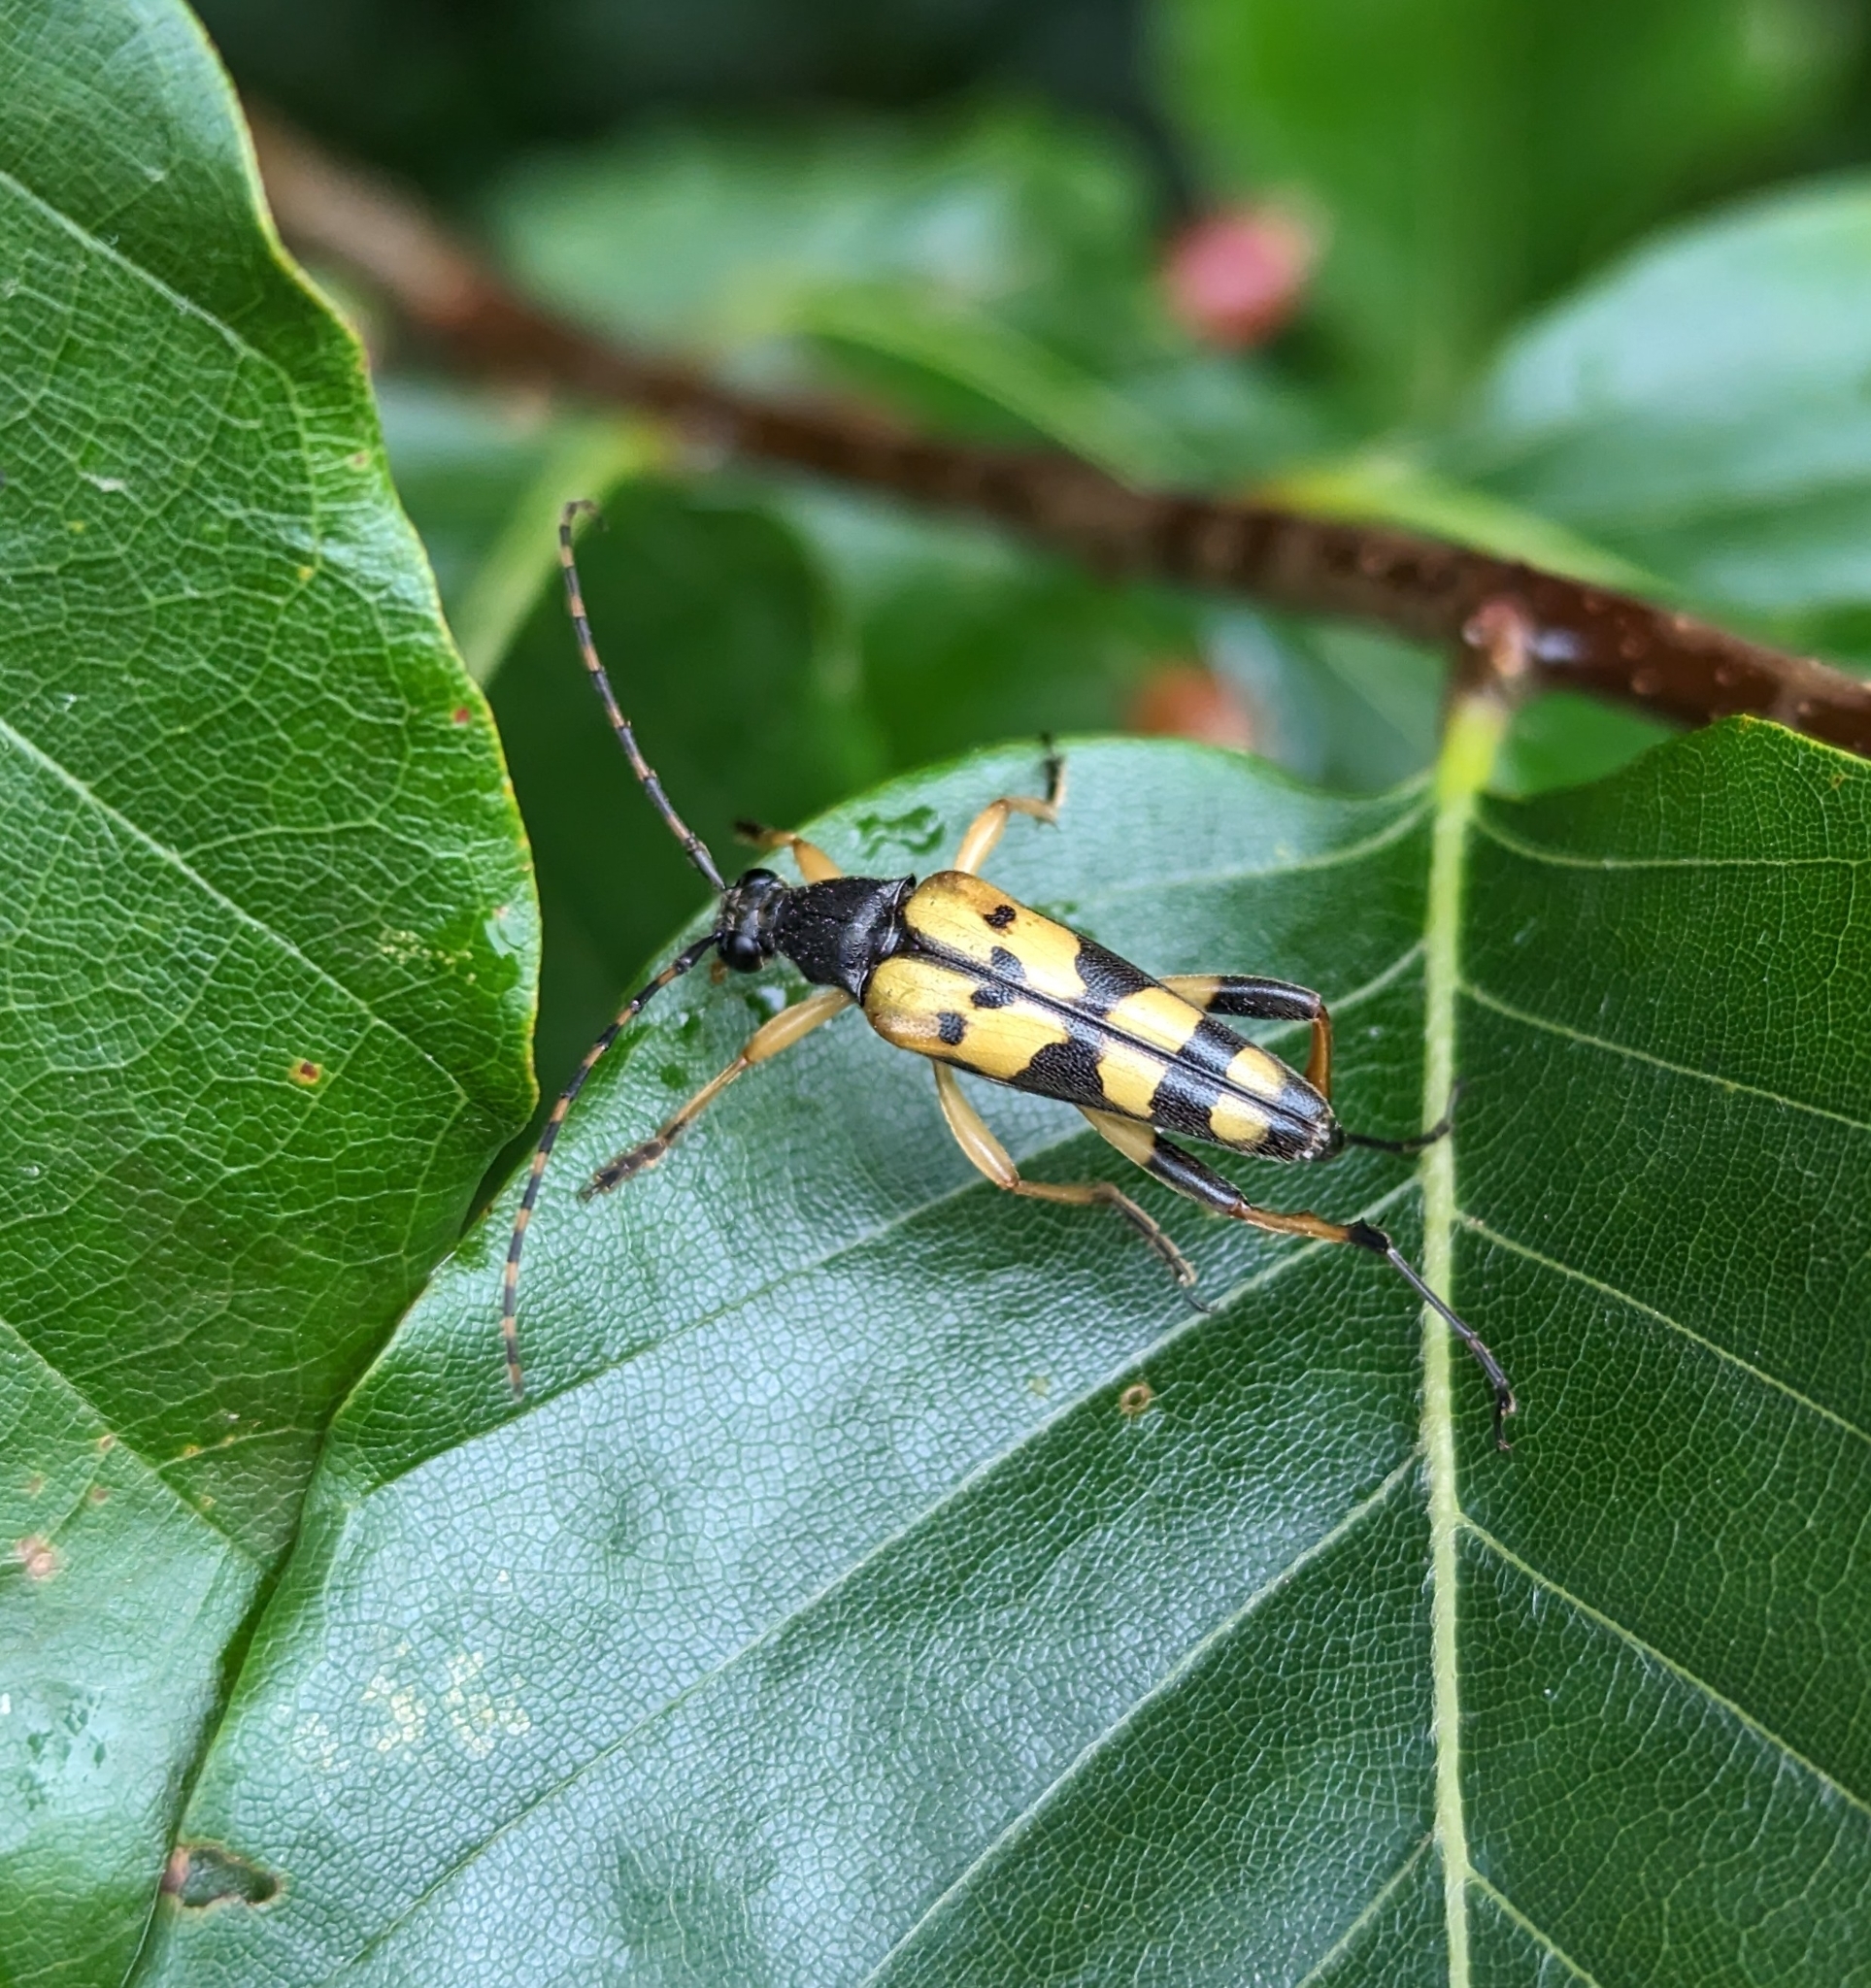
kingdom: Animalia
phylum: Arthropoda
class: Insecta
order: Coleoptera
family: Cerambycidae
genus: Rutpela
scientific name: Rutpela maculata
